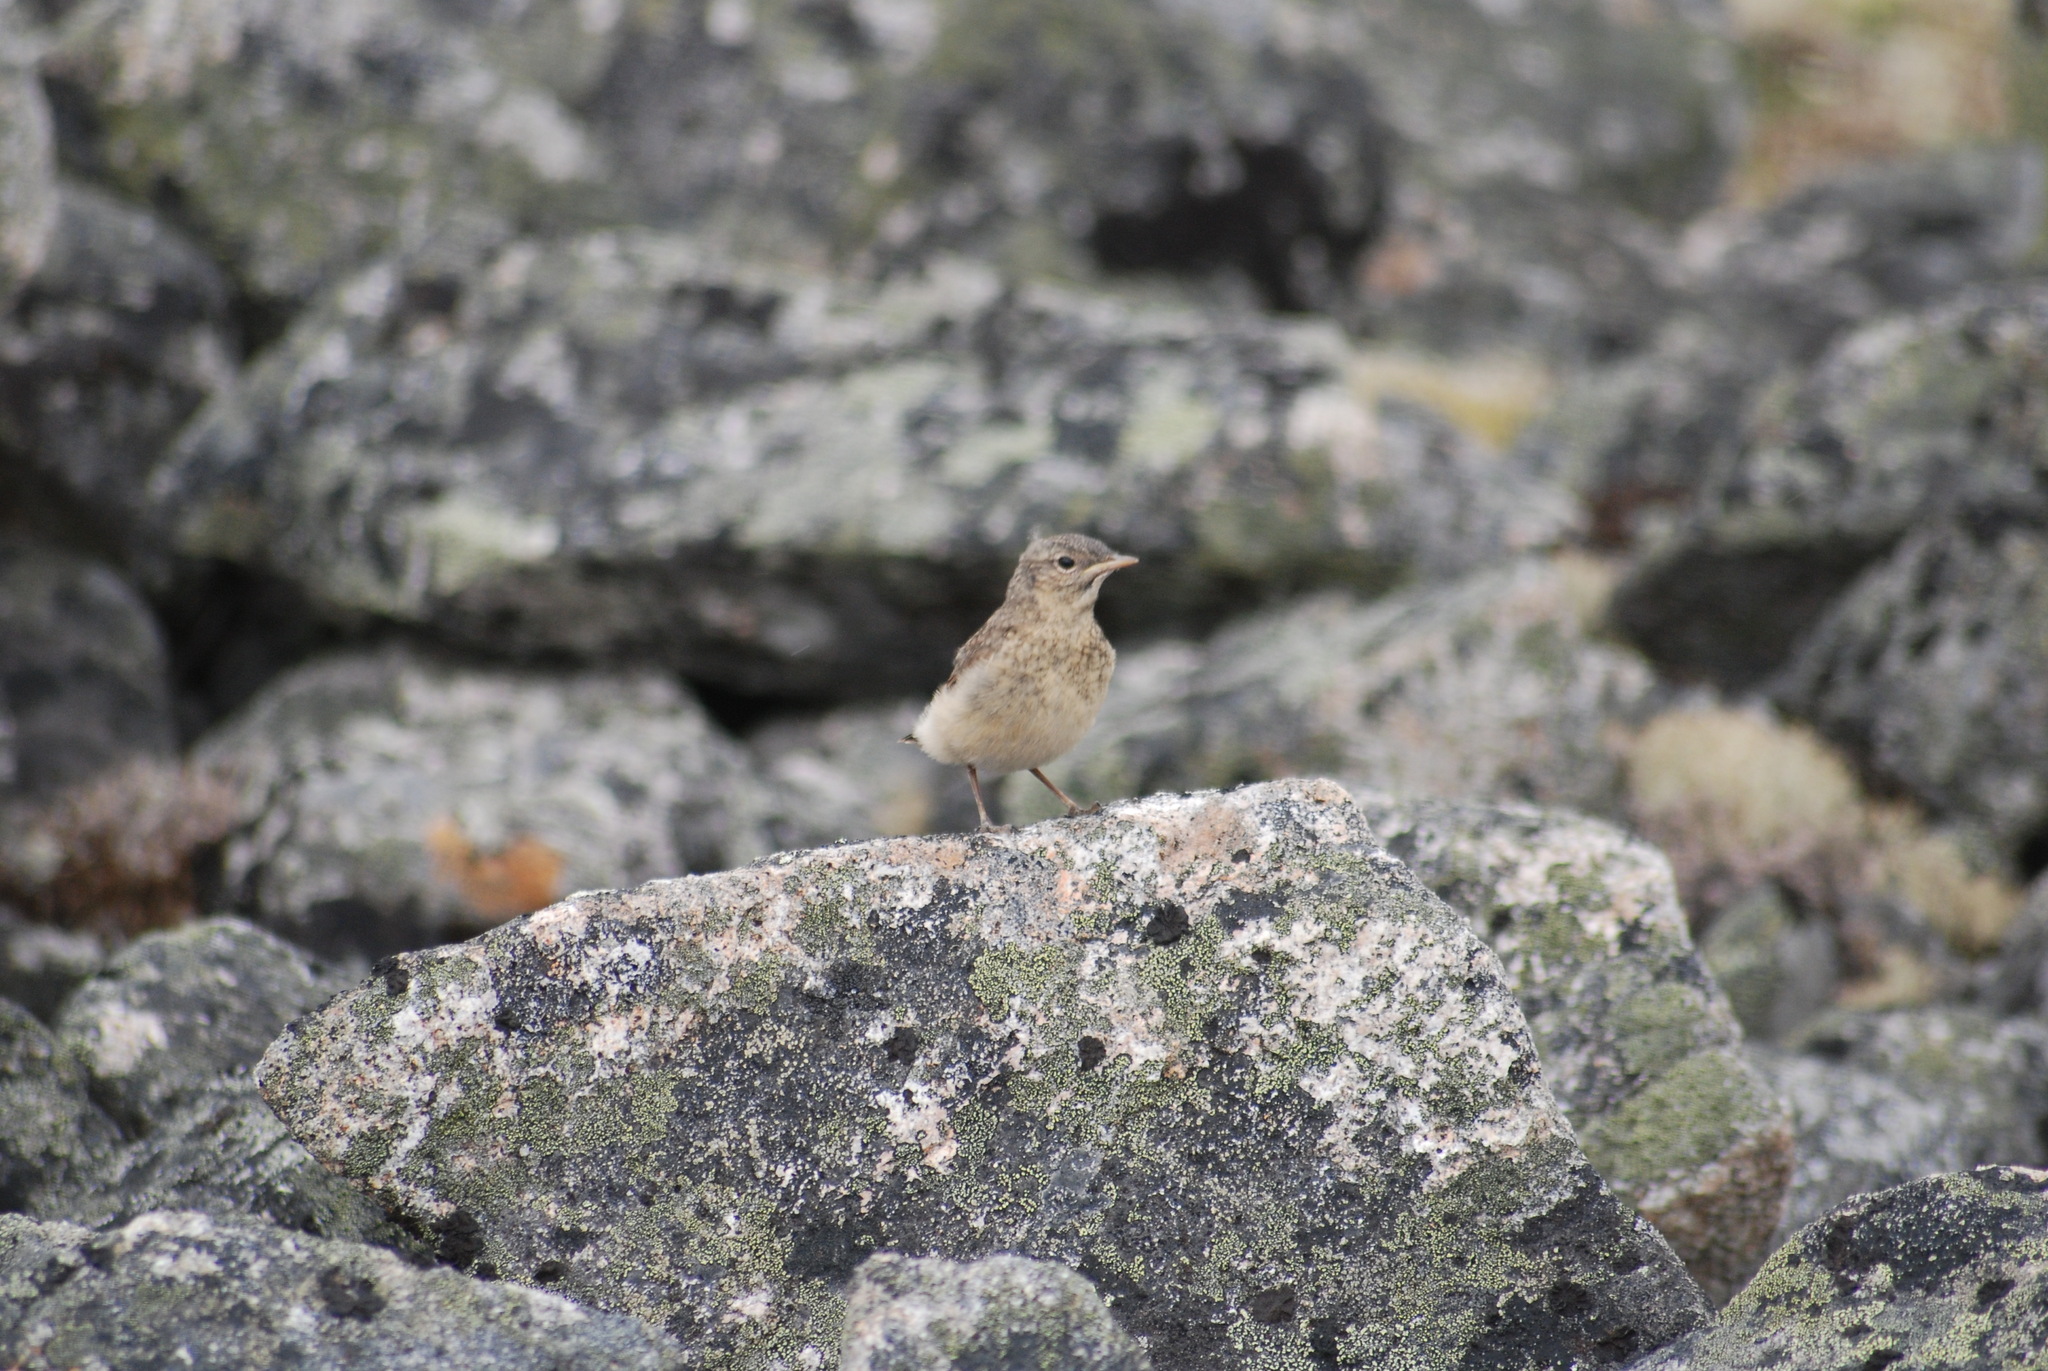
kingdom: Animalia
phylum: Chordata
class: Aves
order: Passeriformes
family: Muscicapidae
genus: Oenanthe
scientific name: Oenanthe oenanthe
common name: Northern wheatear
